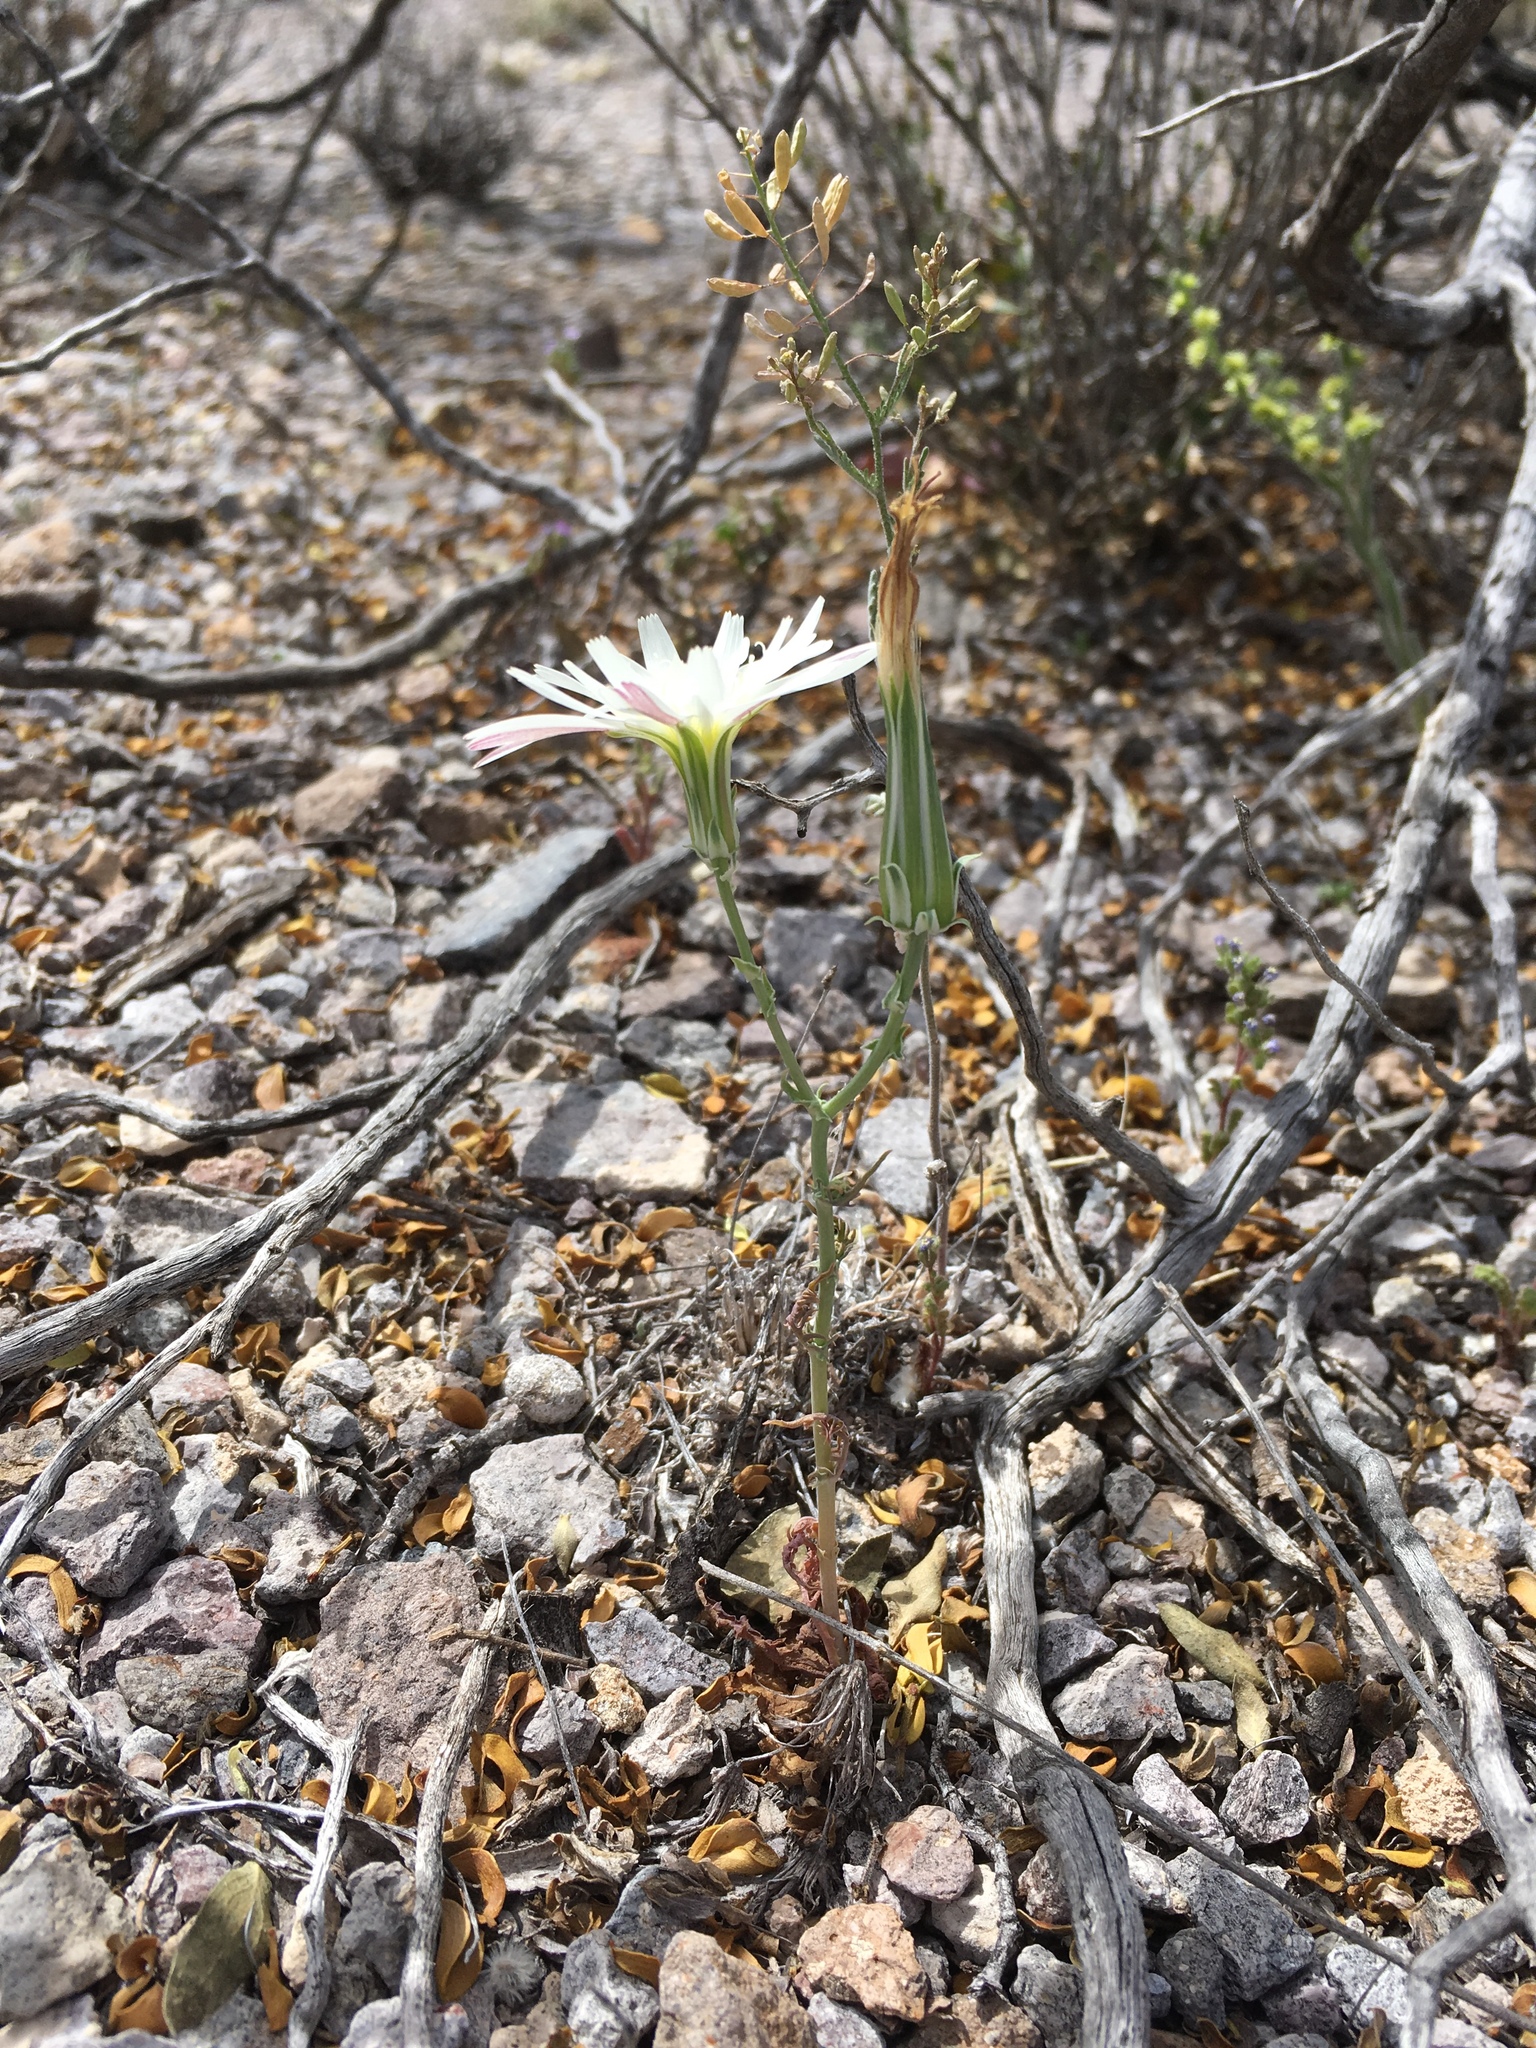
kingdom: Plantae
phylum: Tracheophyta
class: Magnoliopsida
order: Asterales
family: Asteraceae
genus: Rafinesquia
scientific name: Rafinesquia neomexicana
